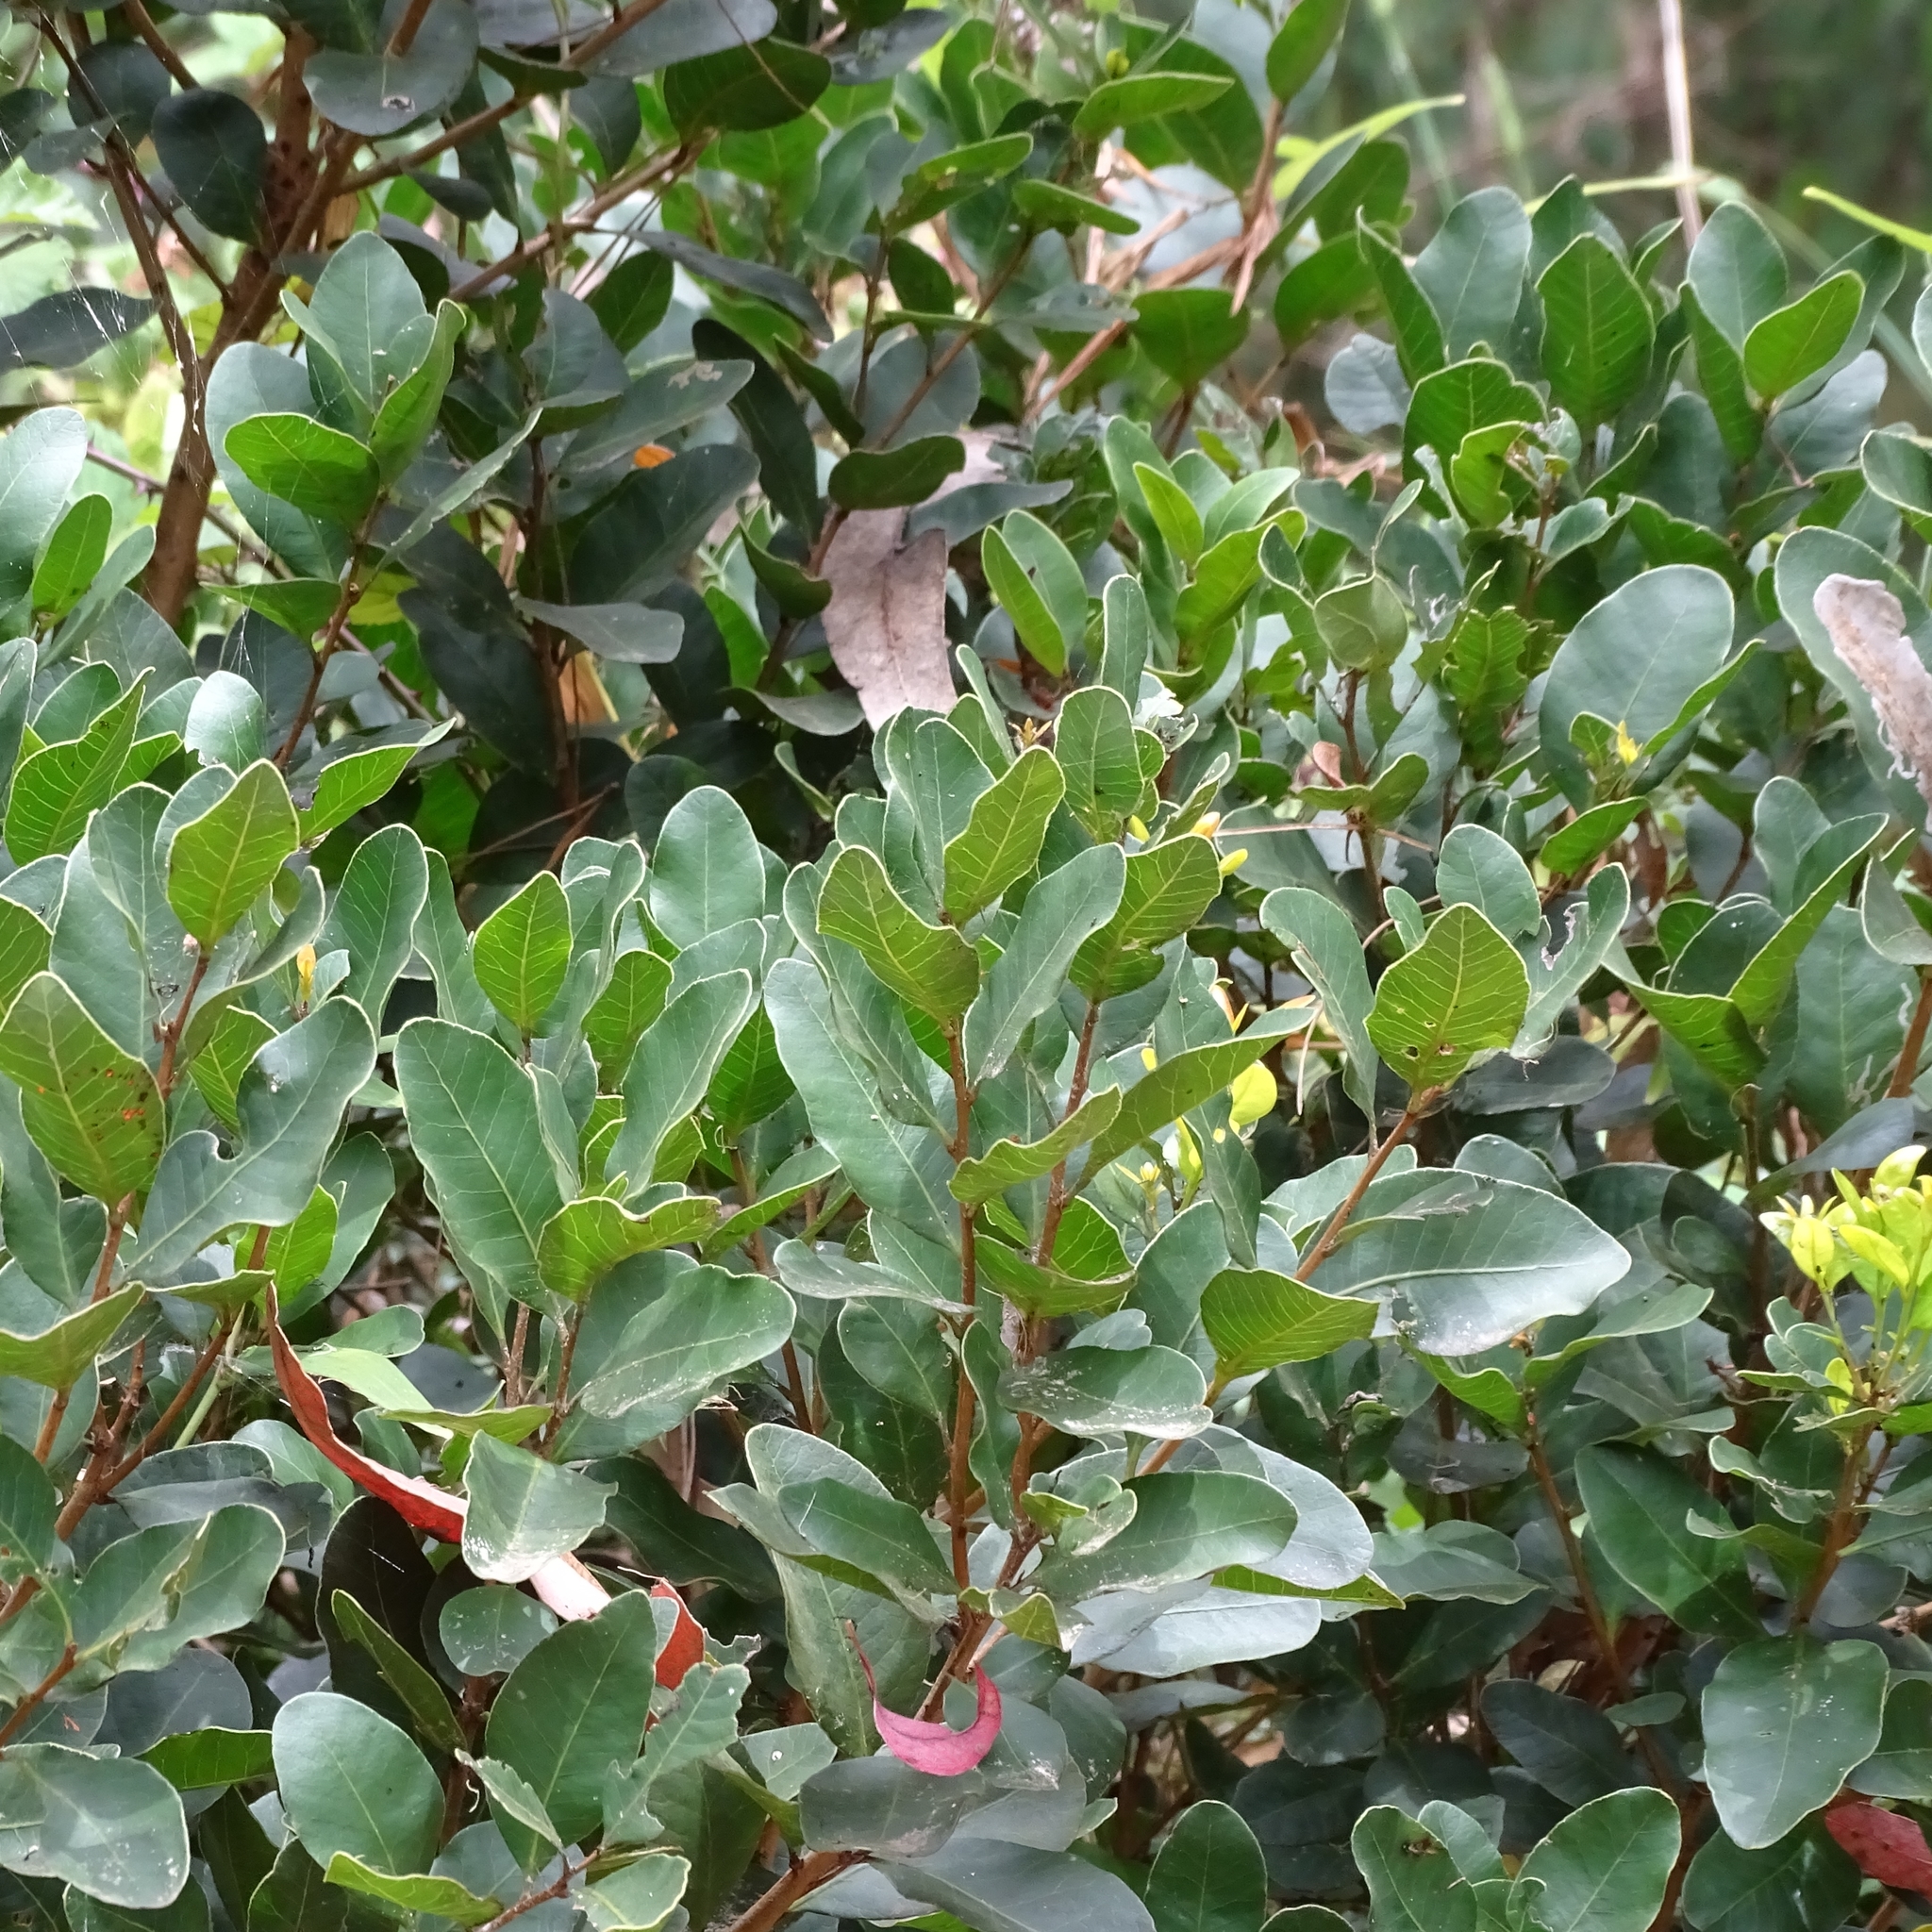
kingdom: Plantae
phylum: Tracheophyta
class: Magnoliopsida
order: Sapindales
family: Anacardiaceae
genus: Lithraea
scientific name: Lithraea caustica
